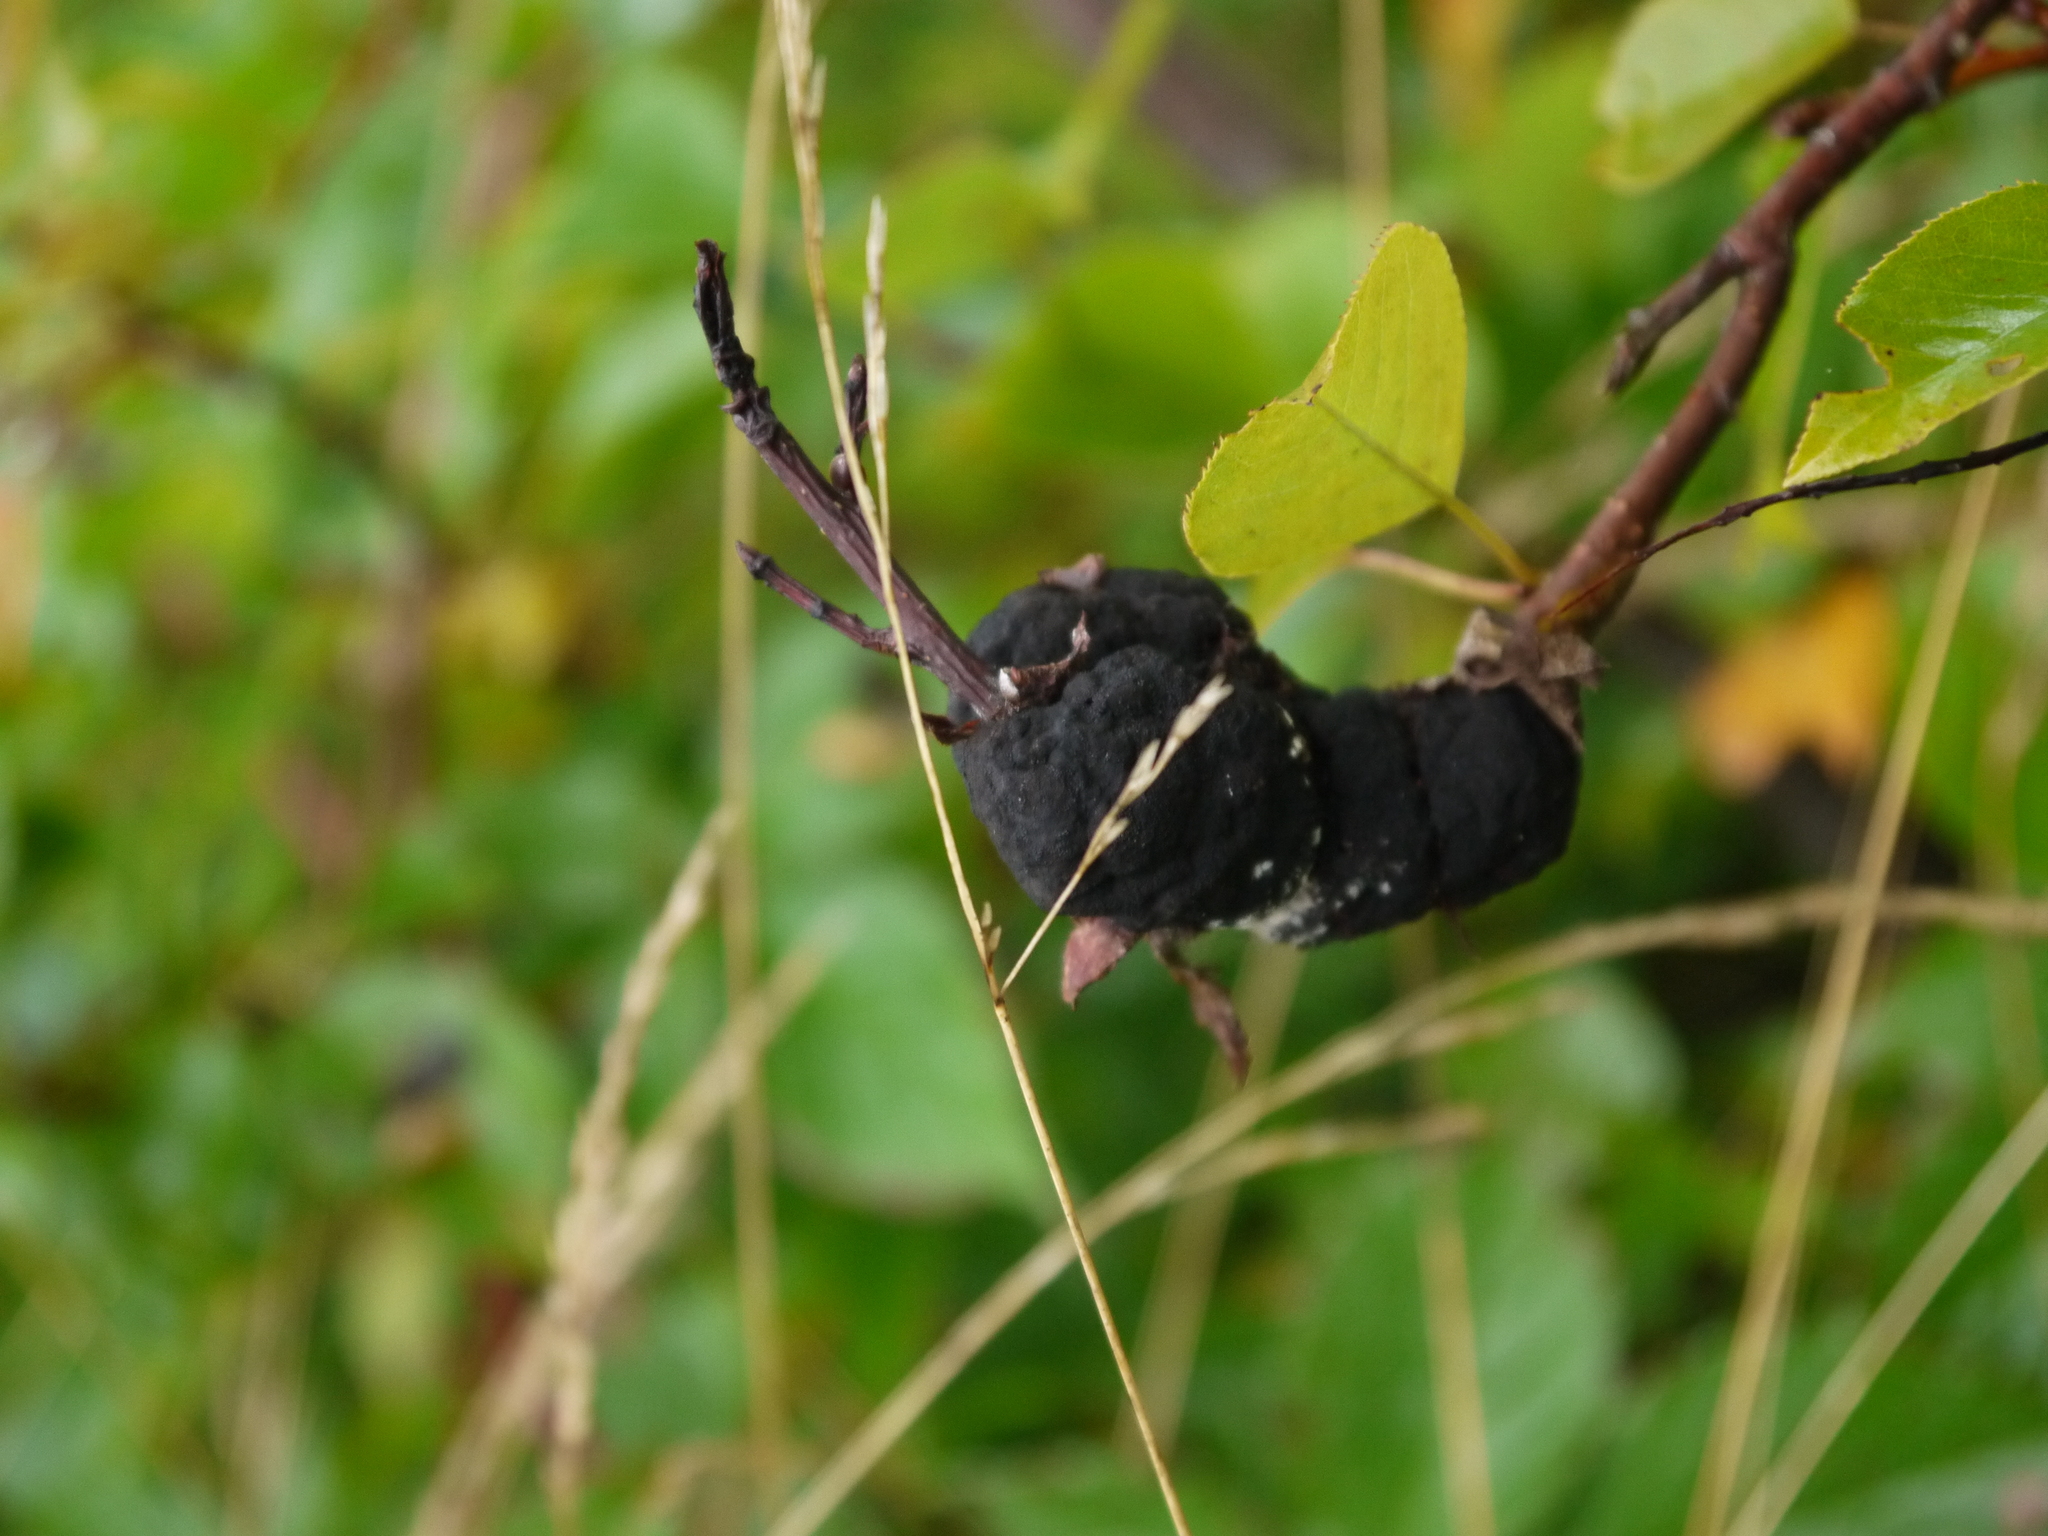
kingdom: Fungi
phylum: Ascomycota
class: Dothideomycetes
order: Venturiales
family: Venturiaceae
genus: Apiosporina
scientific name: Apiosporina morbosa
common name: Black knot
